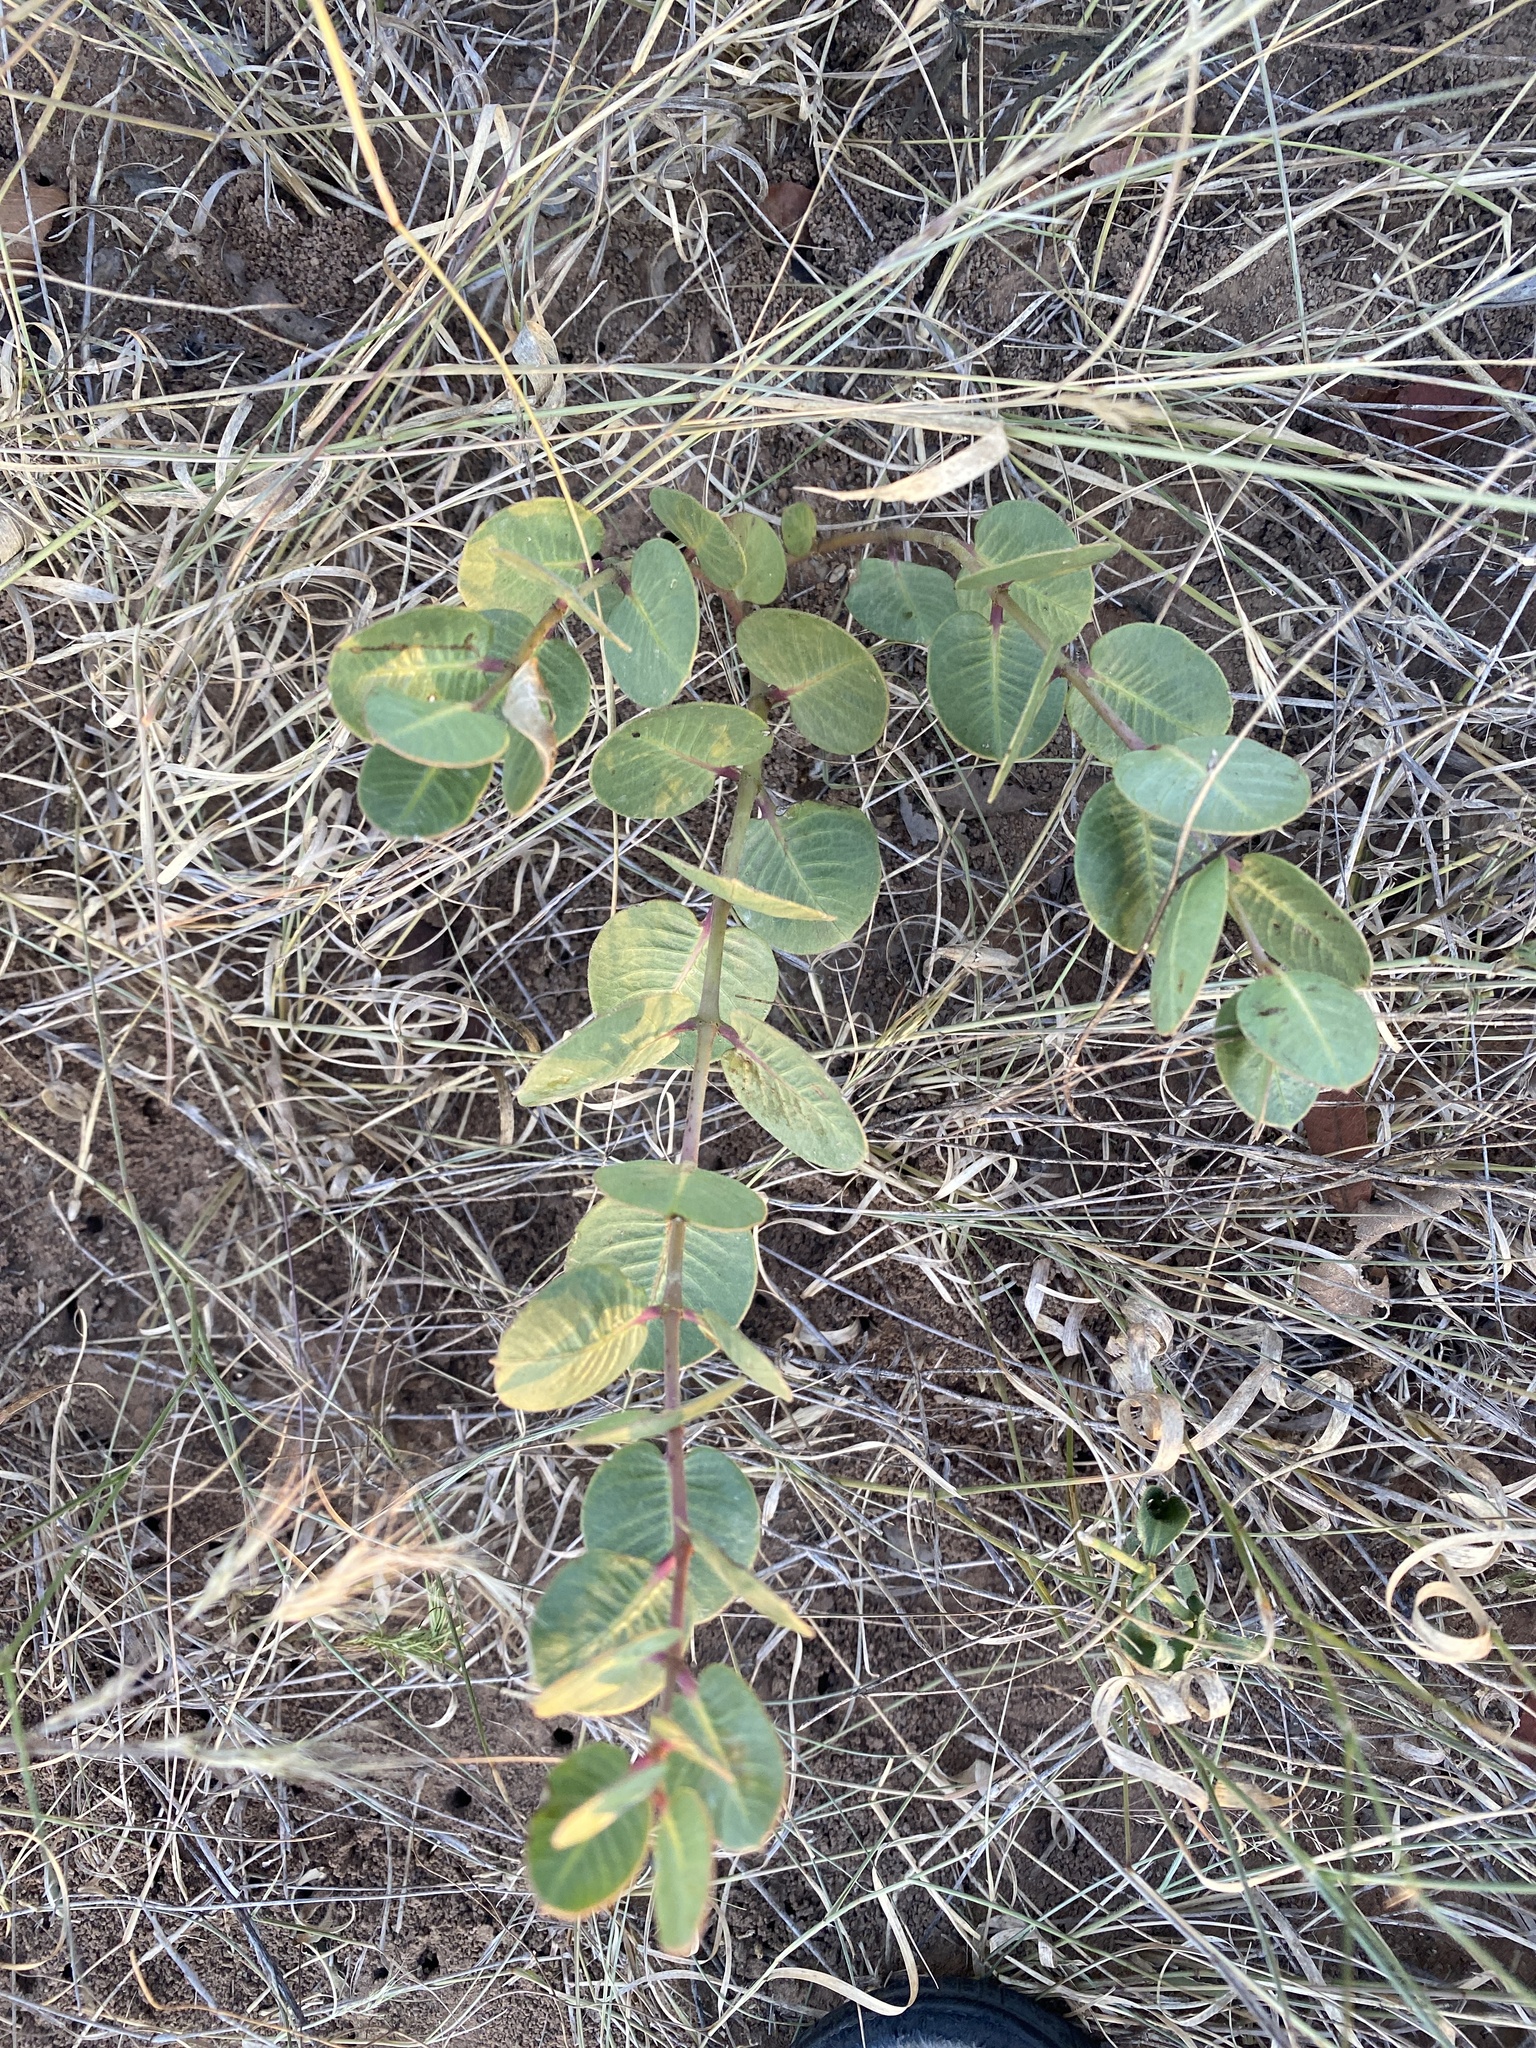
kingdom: Plantae
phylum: Tracheophyta
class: Magnoliopsida
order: Gentianales
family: Apocynaceae
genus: Raphionacme
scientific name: Raphionacme hirsuta
